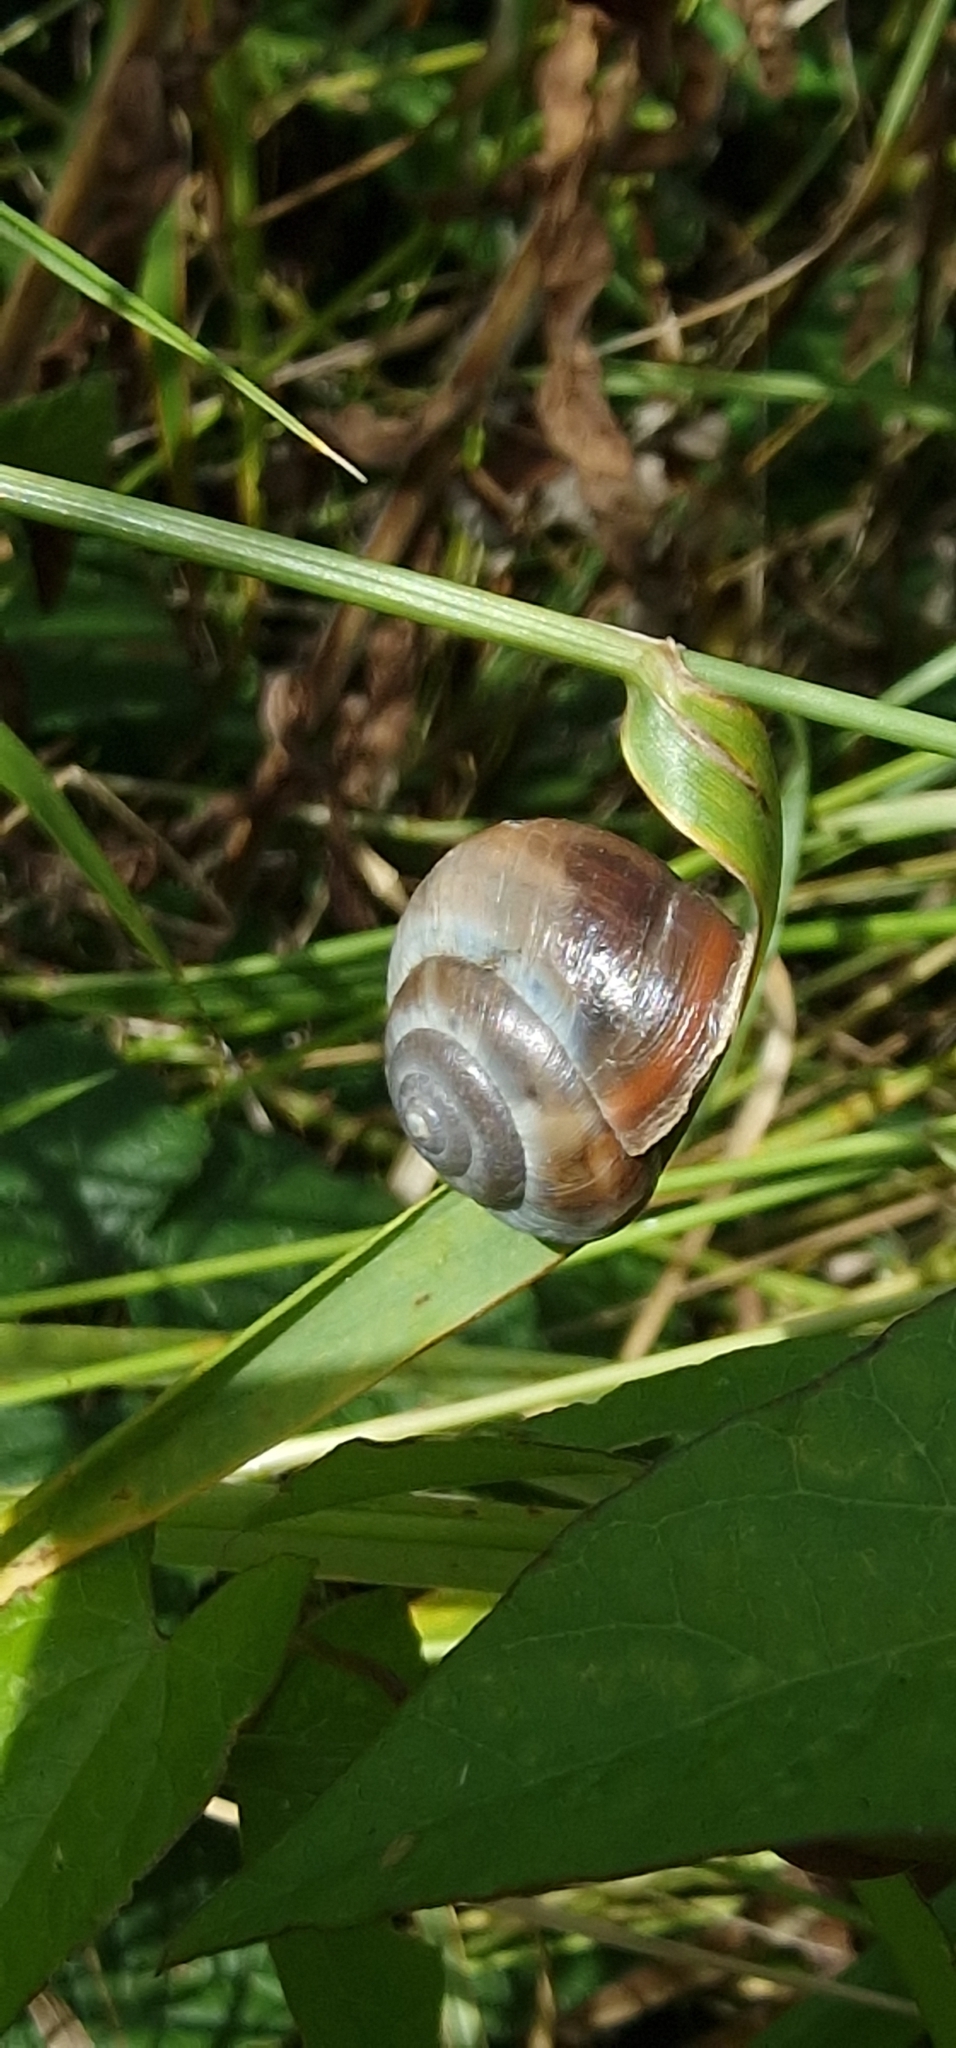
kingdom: Animalia
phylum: Mollusca
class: Gastropoda
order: Stylommatophora
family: Hygromiidae
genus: Monacha
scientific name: Monacha cantiana
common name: Kentish snail
